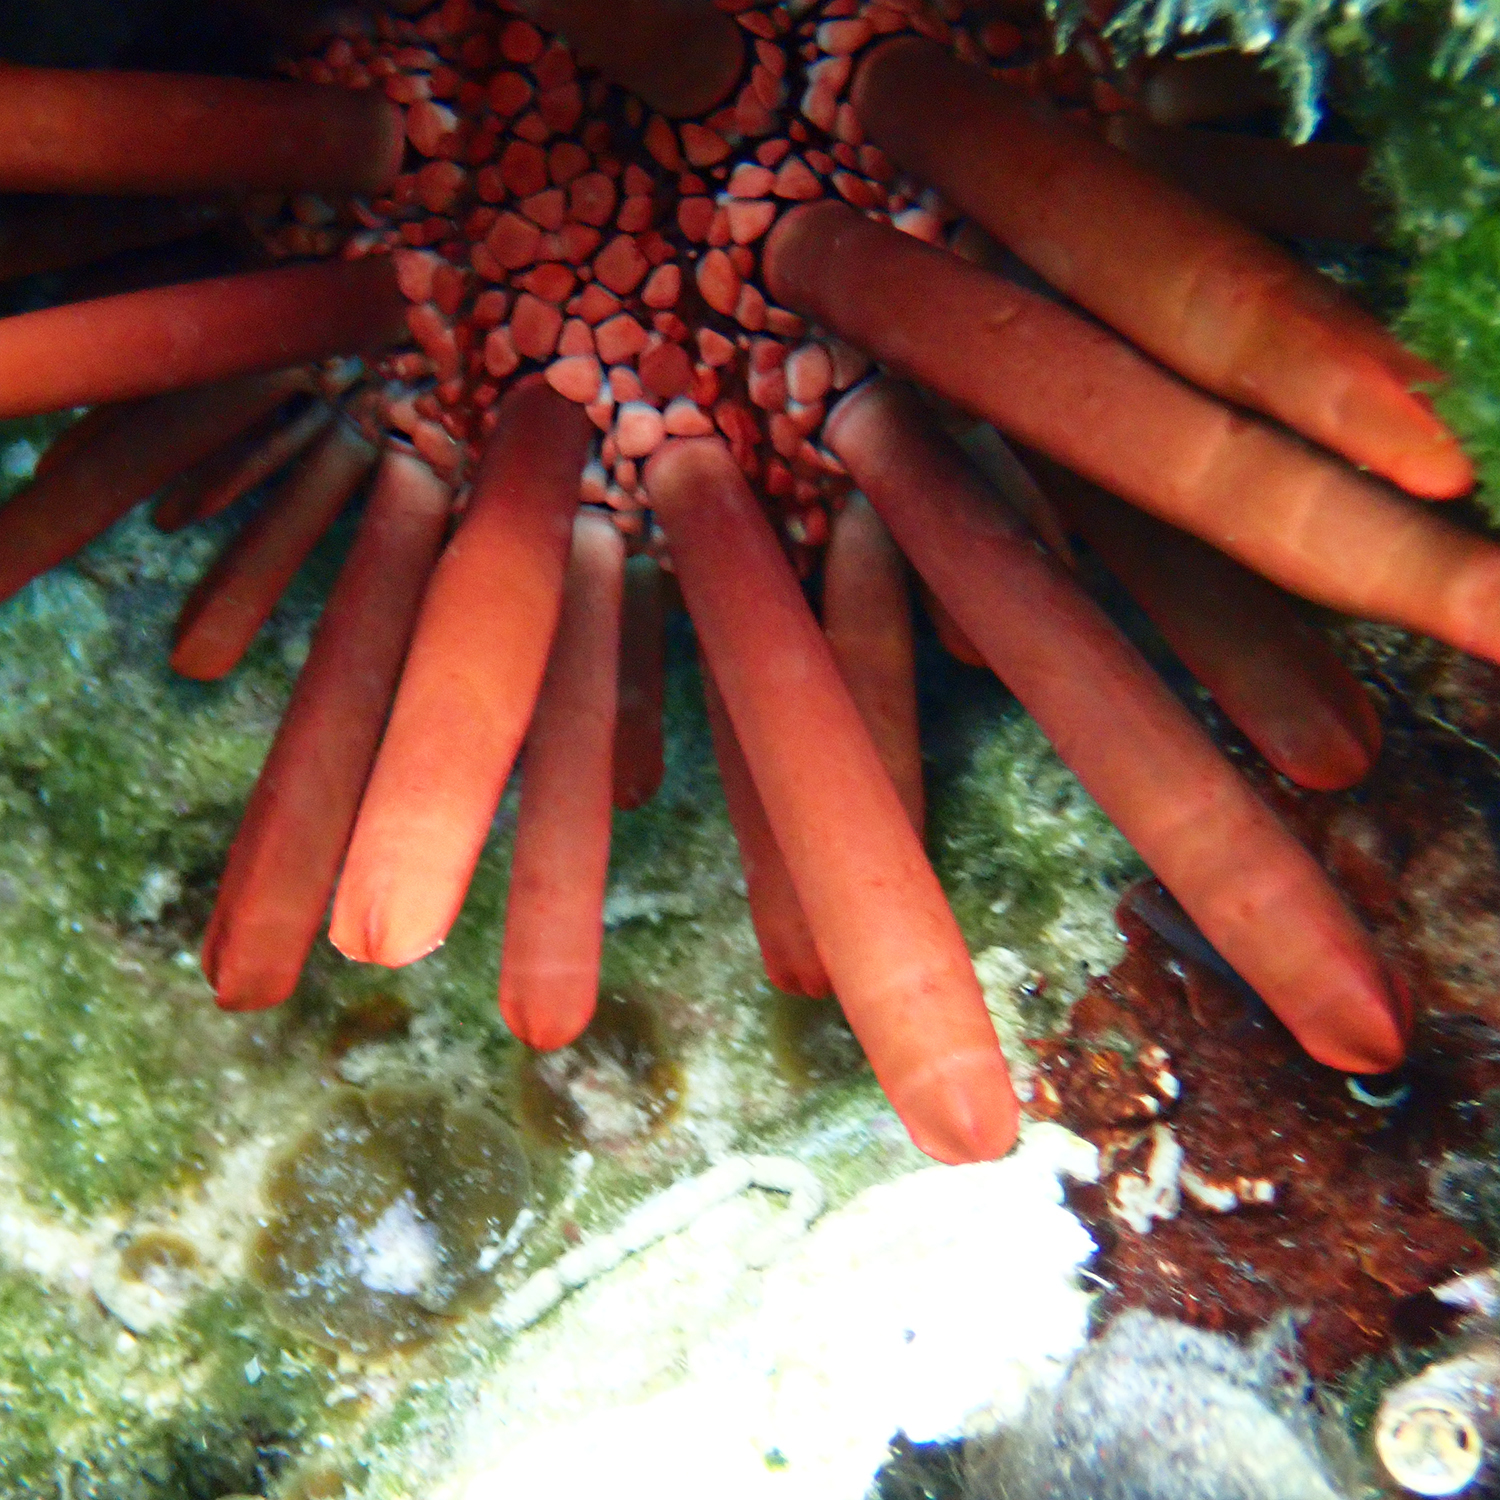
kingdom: Animalia
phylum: Echinodermata
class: Echinoidea
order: Camarodonta
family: Echinometridae
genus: Heterocentrotus
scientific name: Heterocentrotus mamillatus
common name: Slate pencil urchin
